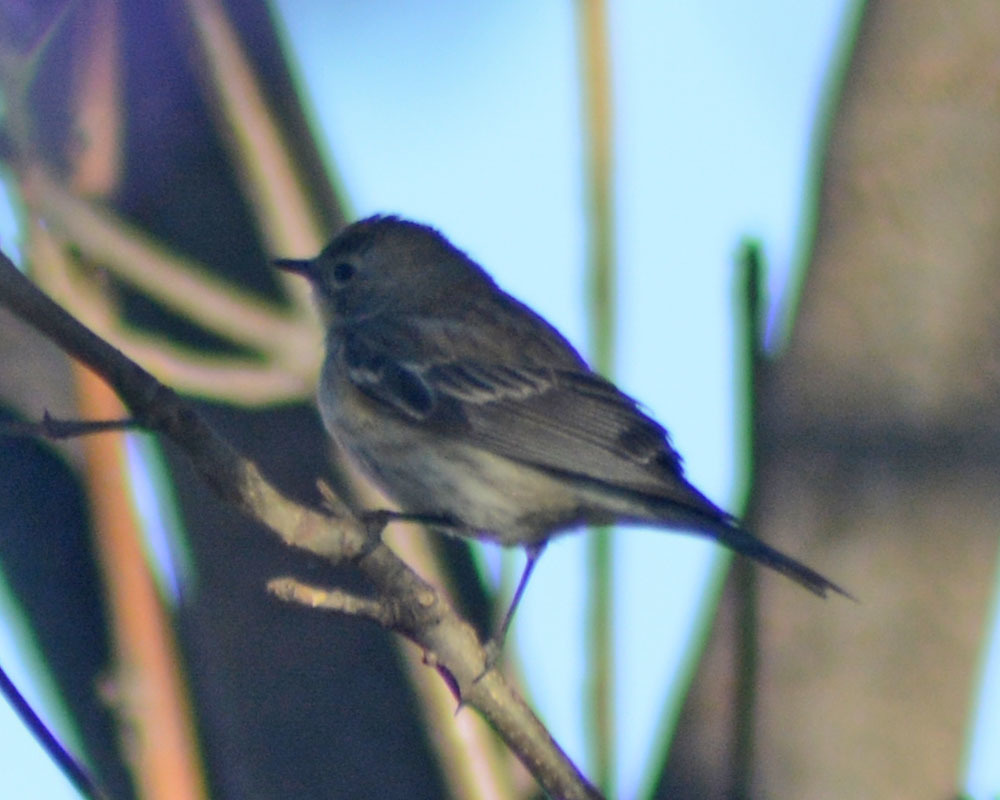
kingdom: Animalia
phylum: Chordata
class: Aves
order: Passeriformes
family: Parulidae
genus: Setophaga
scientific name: Setophaga coronata
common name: Myrtle warbler
